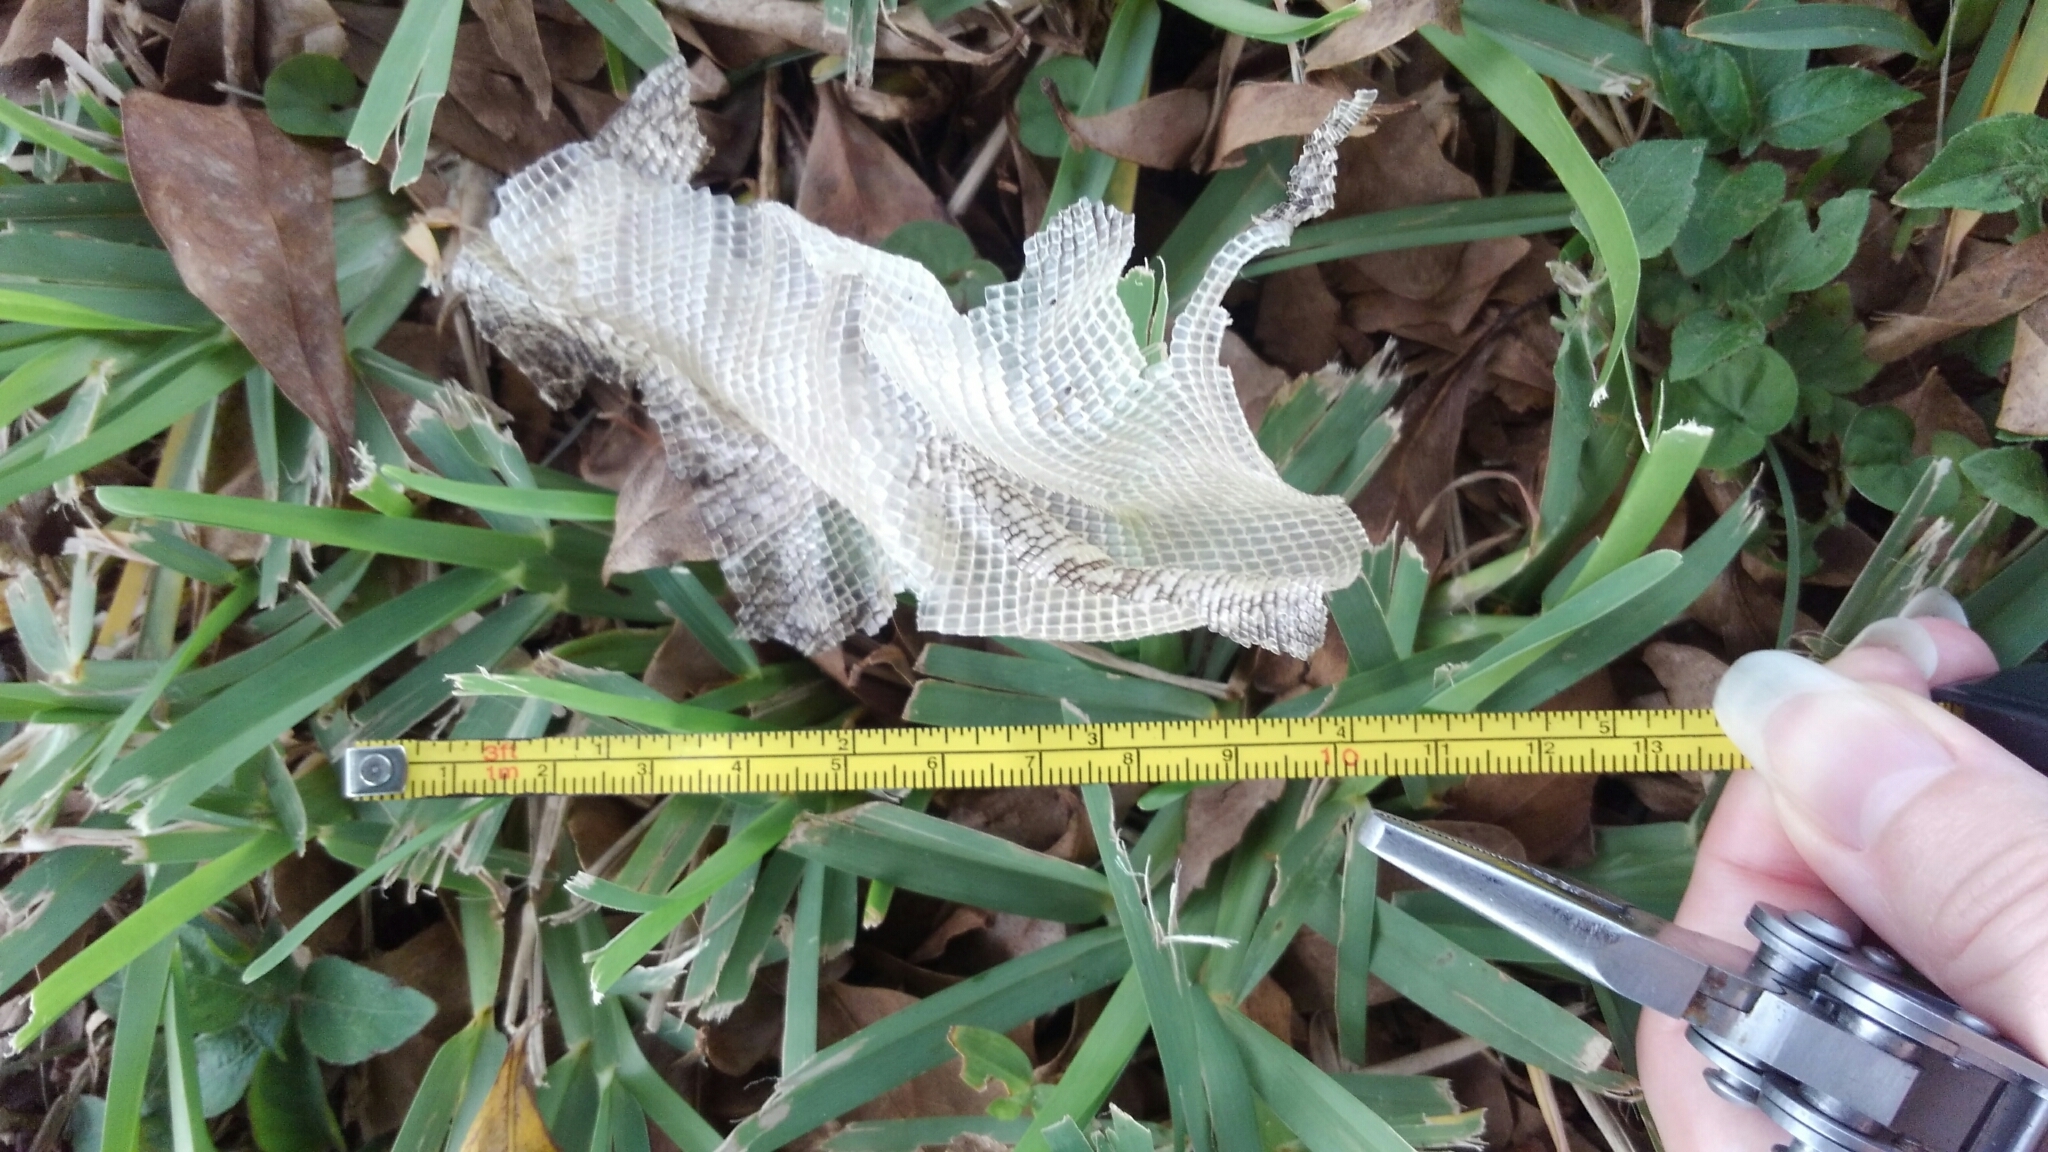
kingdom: Animalia
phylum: Chordata
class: Squamata
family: Iguanidae
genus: Iguana
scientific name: Iguana iguana
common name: Green iguana
